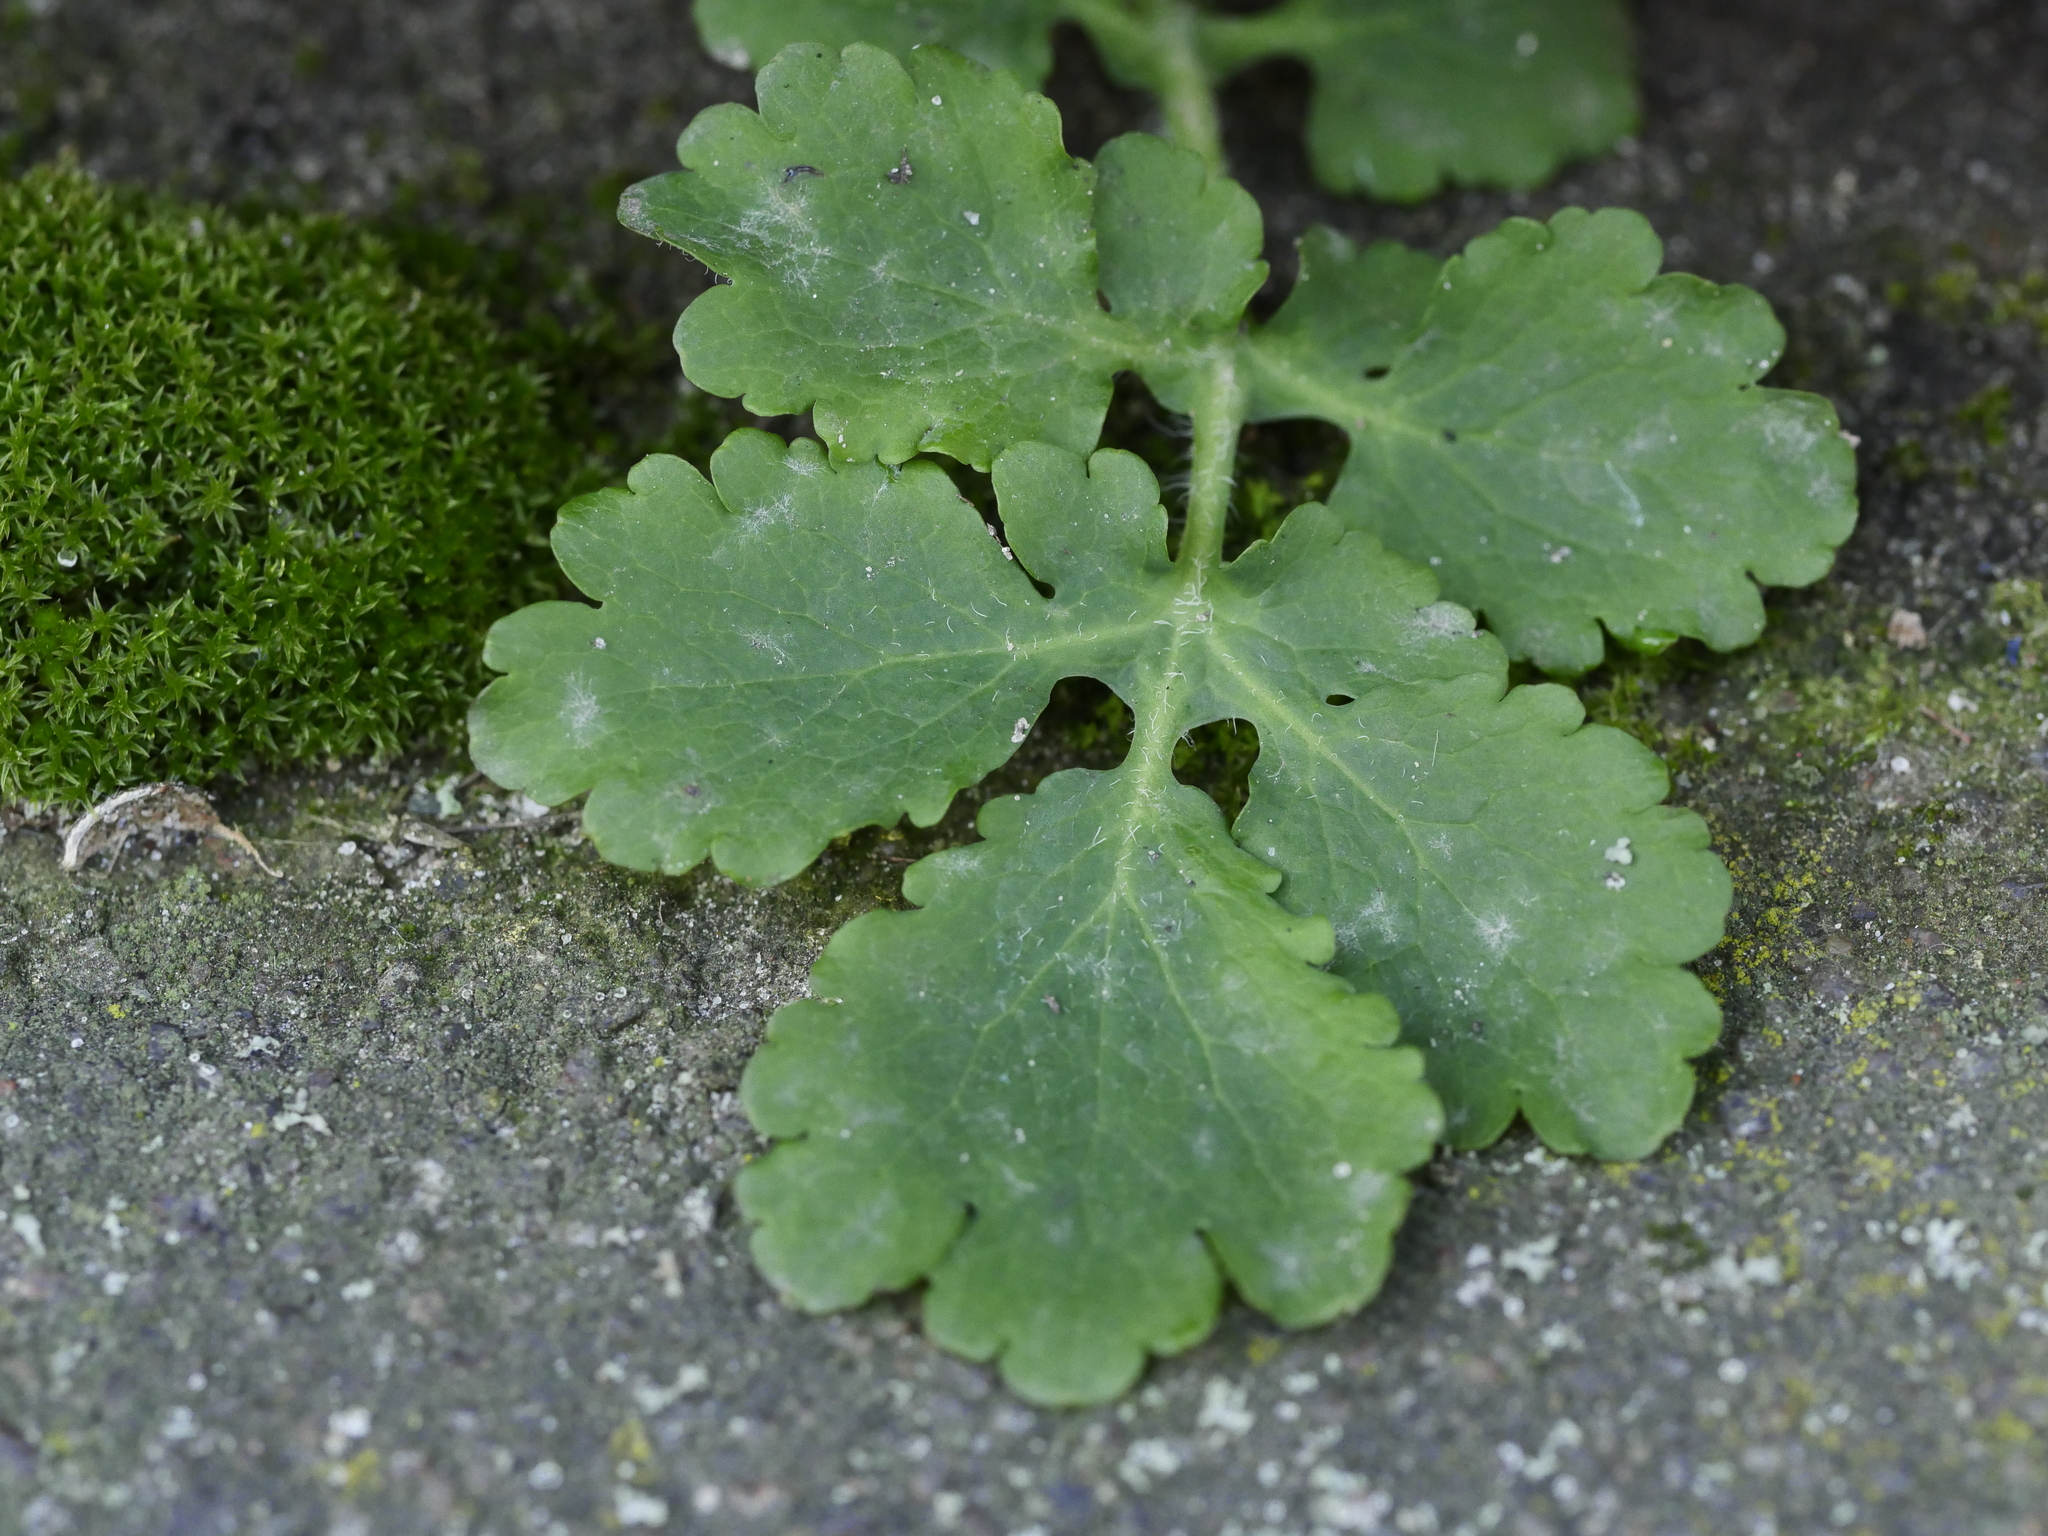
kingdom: Plantae
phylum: Tracheophyta
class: Magnoliopsida
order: Ranunculales
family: Papaveraceae
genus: Chelidonium
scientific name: Chelidonium majus
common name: Greater celandine
